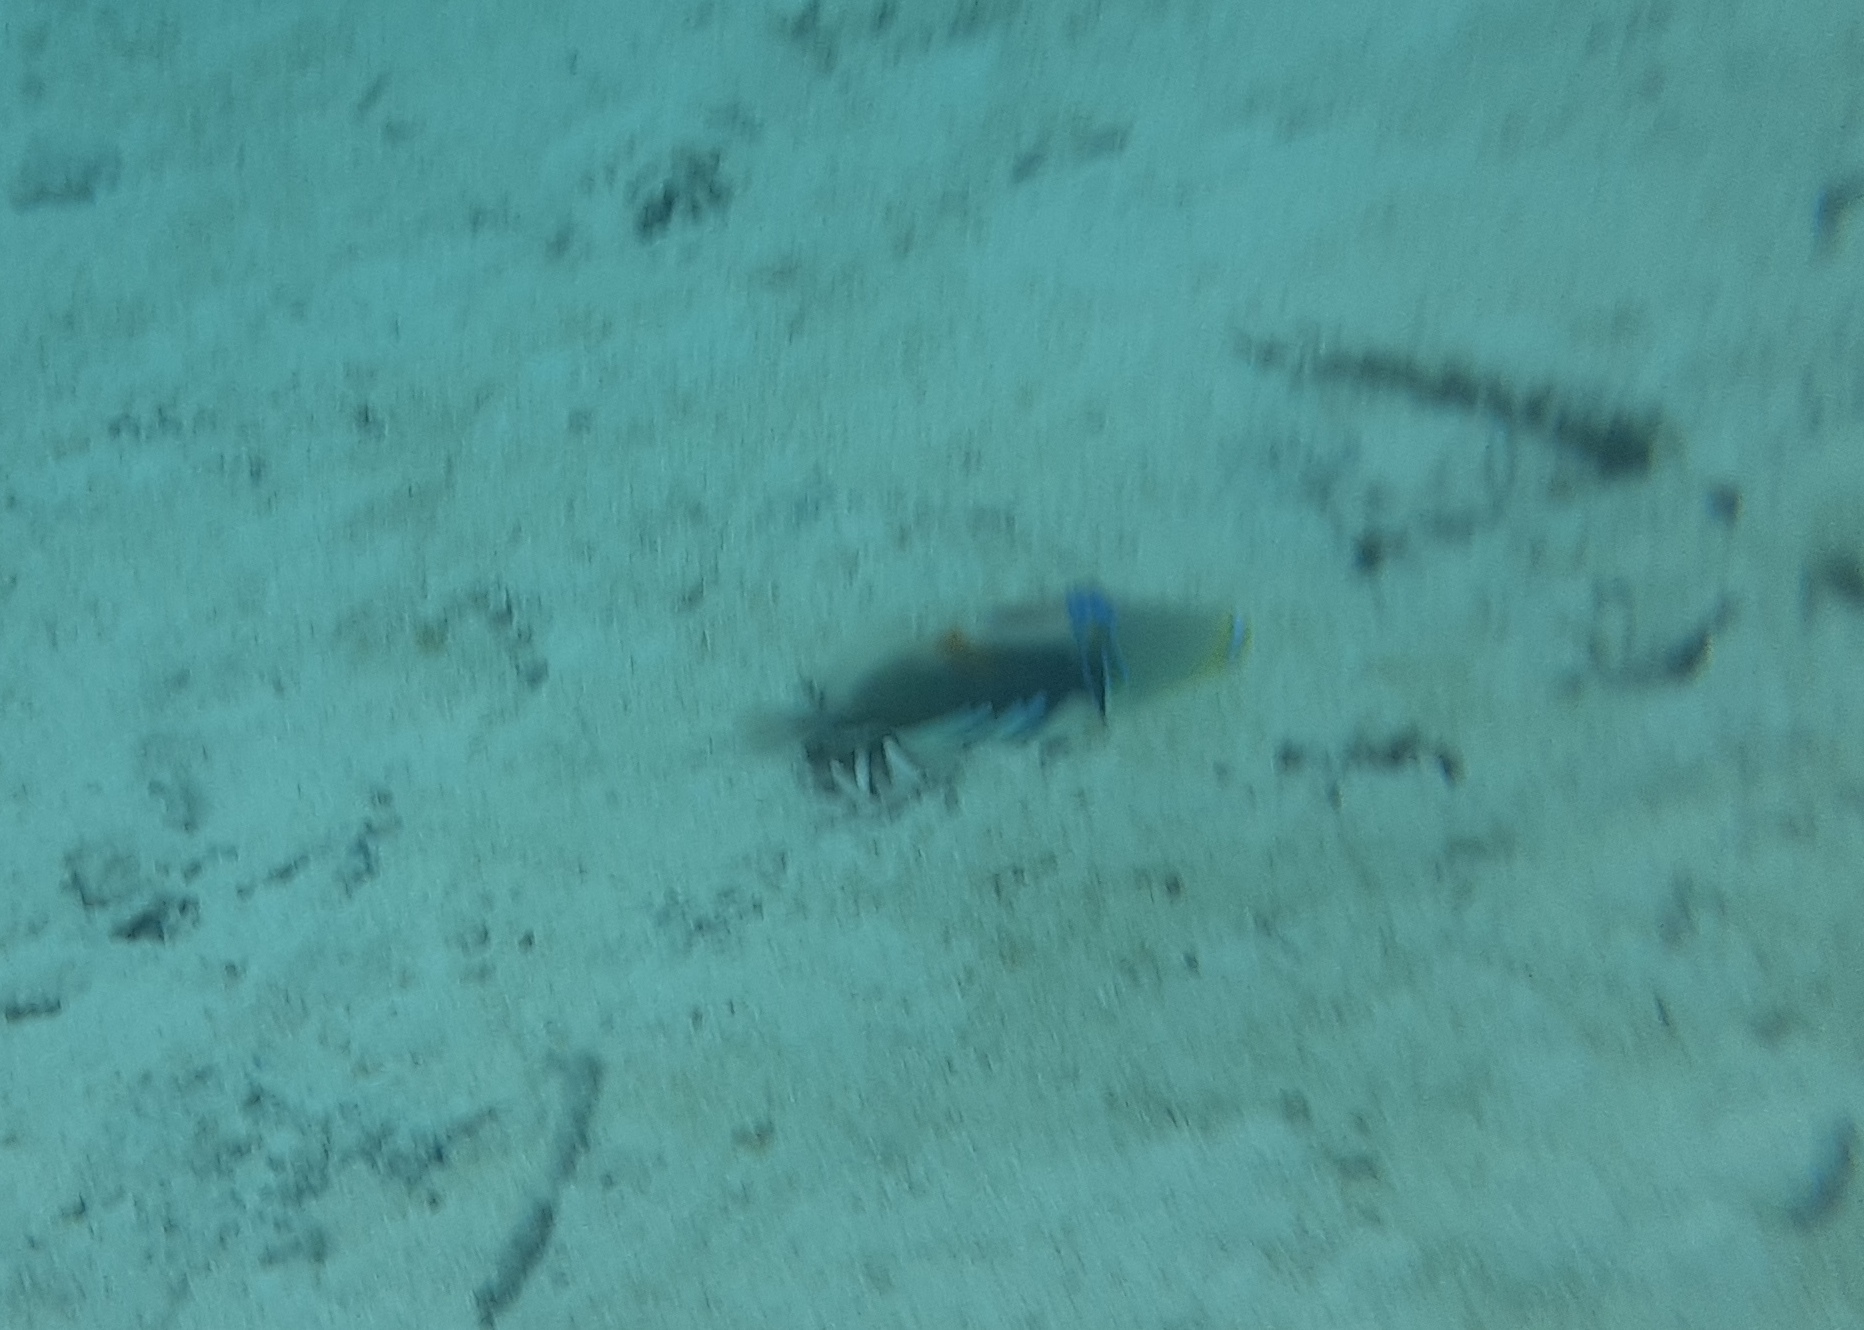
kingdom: Animalia
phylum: Chordata
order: Tetraodontiformes
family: Balistidae
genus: Rhinecanthus
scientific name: Rhinecanthus aculeatus
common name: White-banded triggerfish
